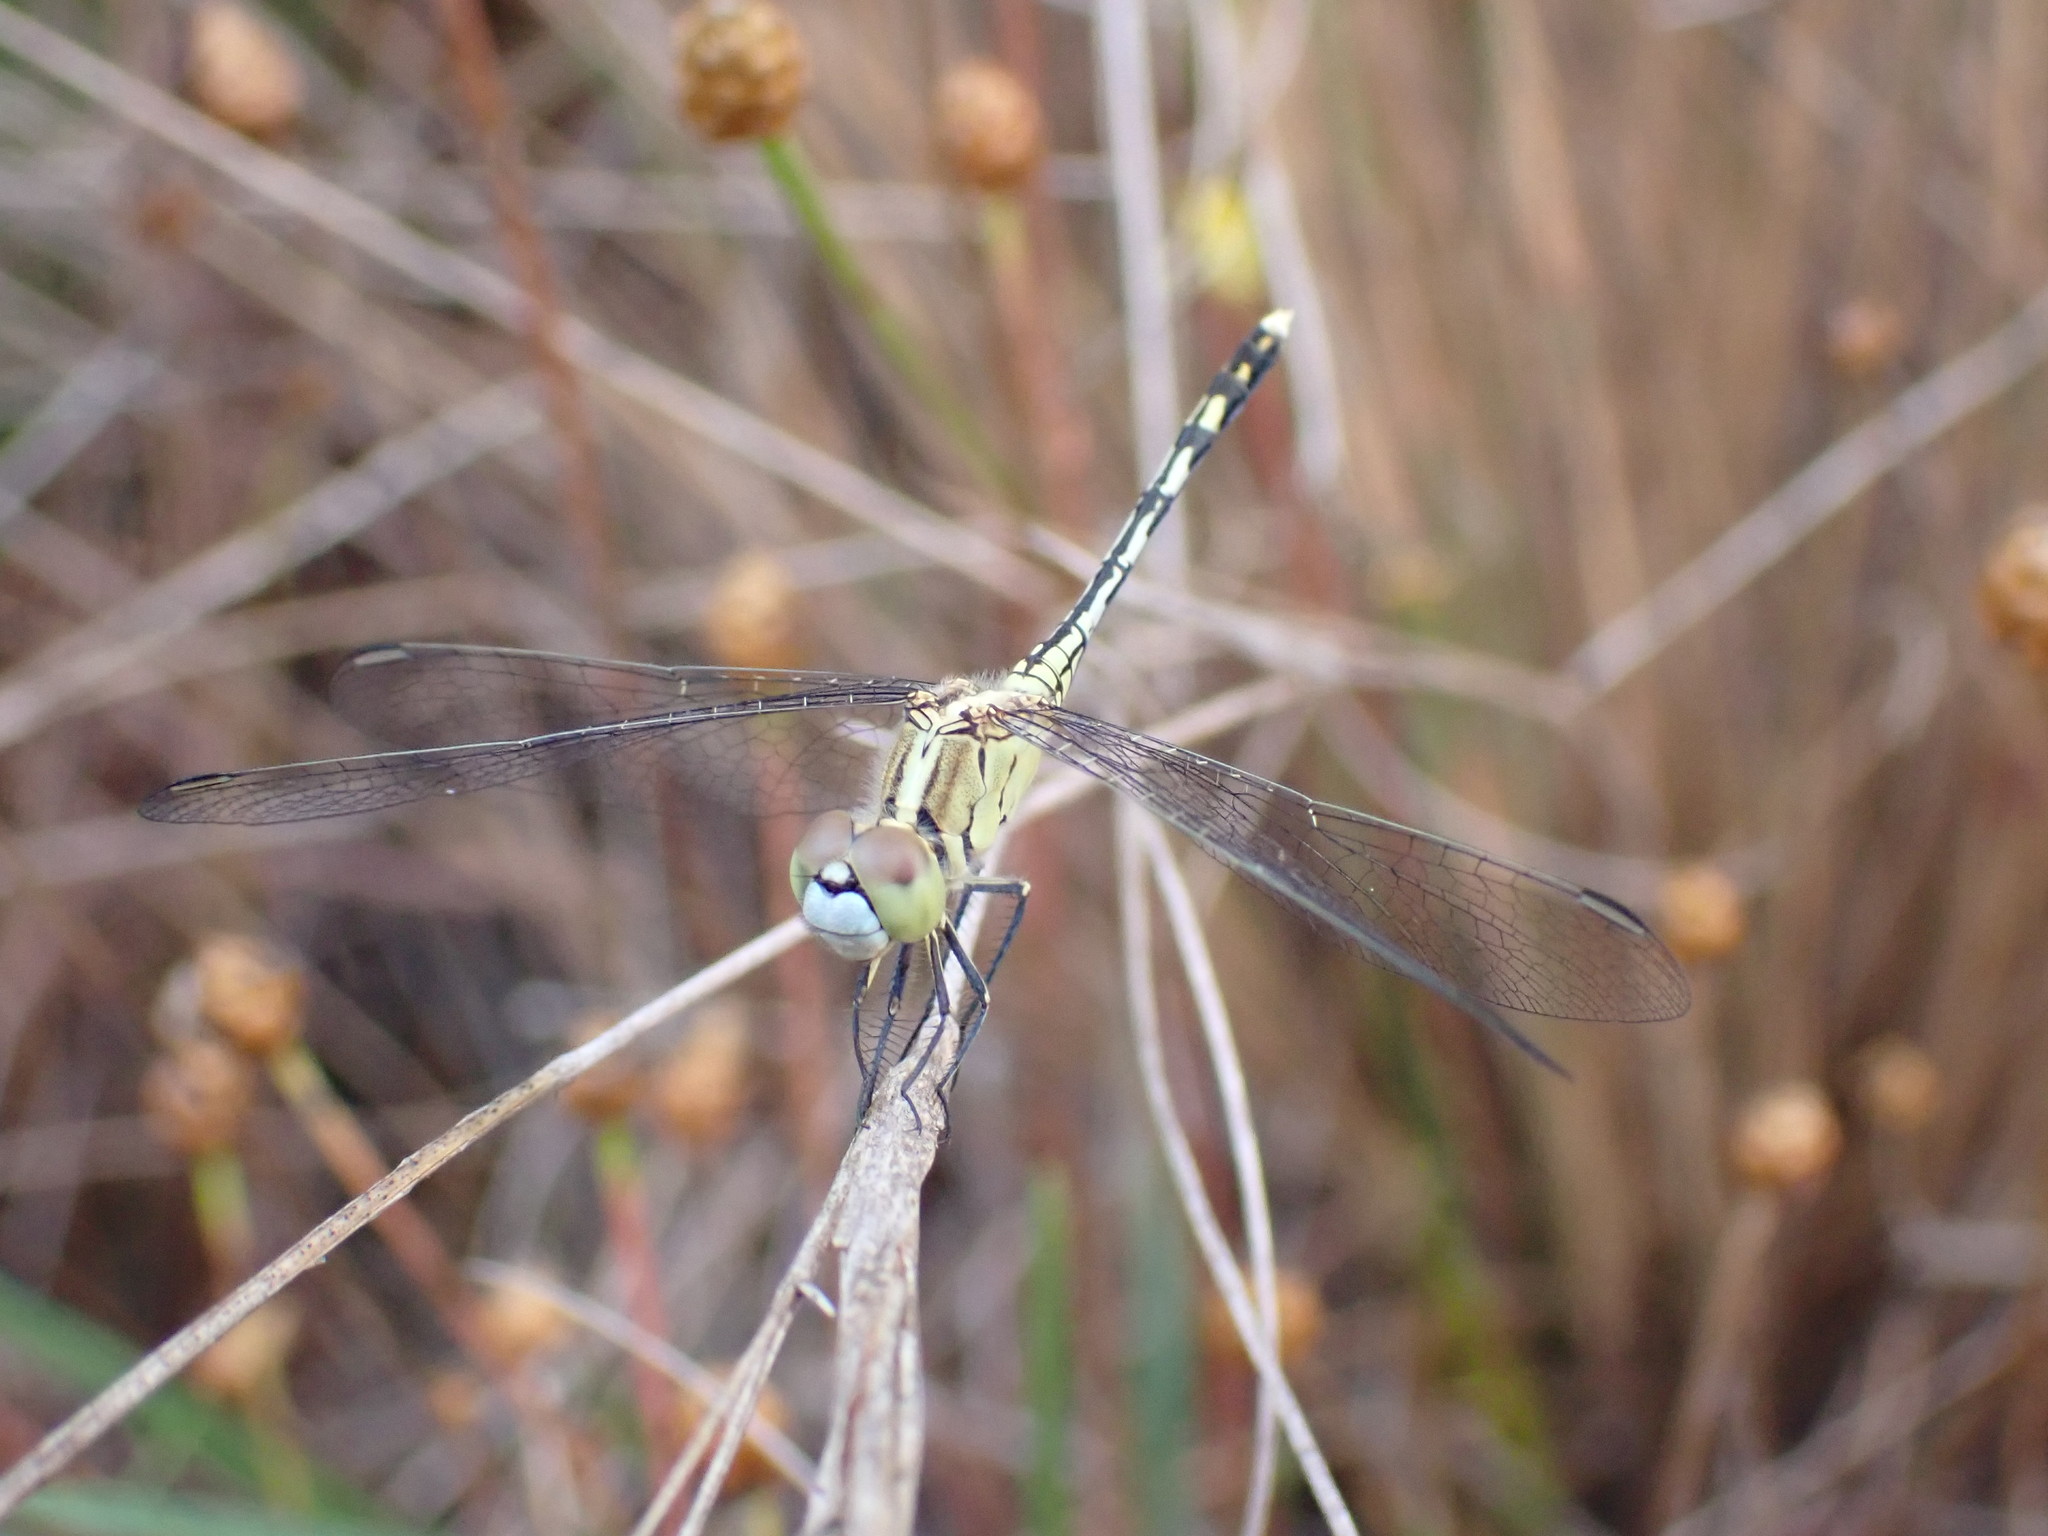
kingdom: Animalia
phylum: Arthropoda
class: Insecta
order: Odonata
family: Libellulidae
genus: Diplacodes
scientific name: Diplacodes trivialis
